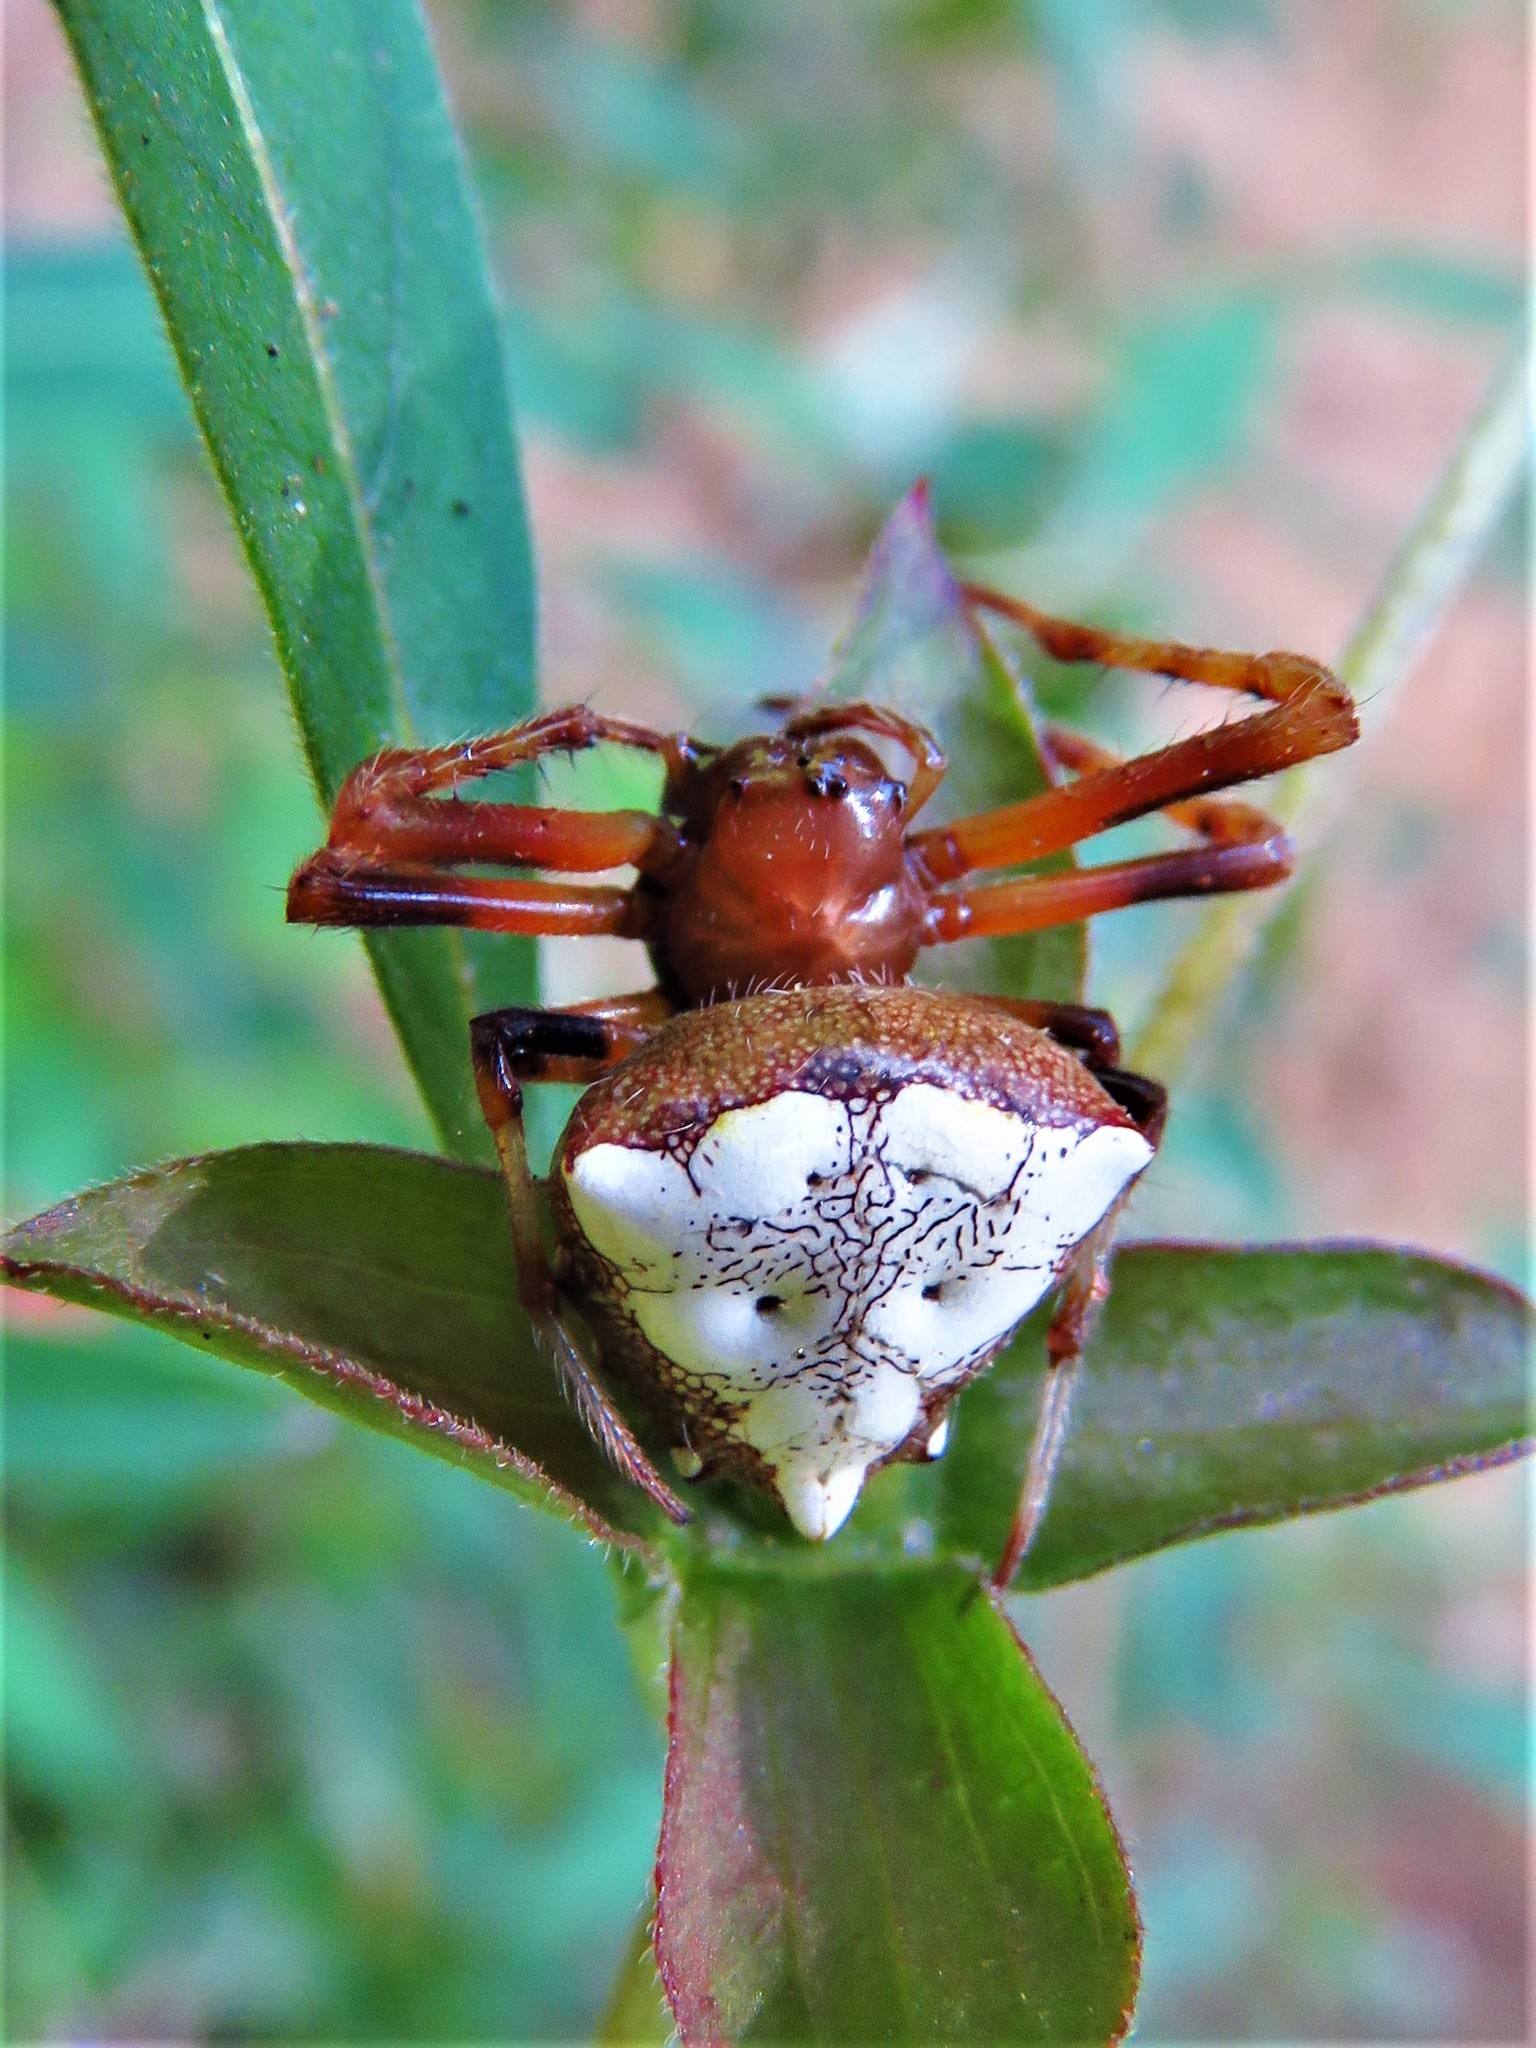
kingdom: Animalia
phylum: Arthropoda
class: Arachnida
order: Araneae
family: Araneidae
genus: Verrucosa
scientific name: Verrucosa arenata
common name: Orb weavers
